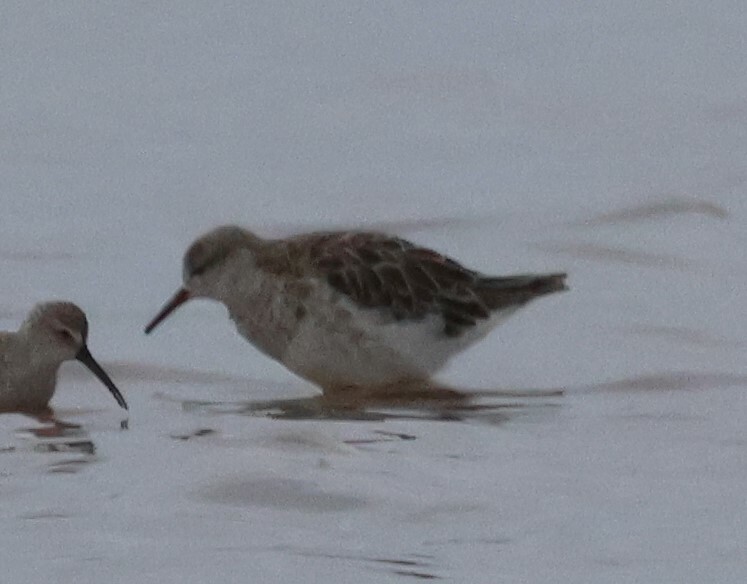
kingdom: Animalia
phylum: Chordata
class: Aves
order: Charadriiformes
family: Scolopacidae
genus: Calidris
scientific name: Calidris pugnax
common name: Ruff
